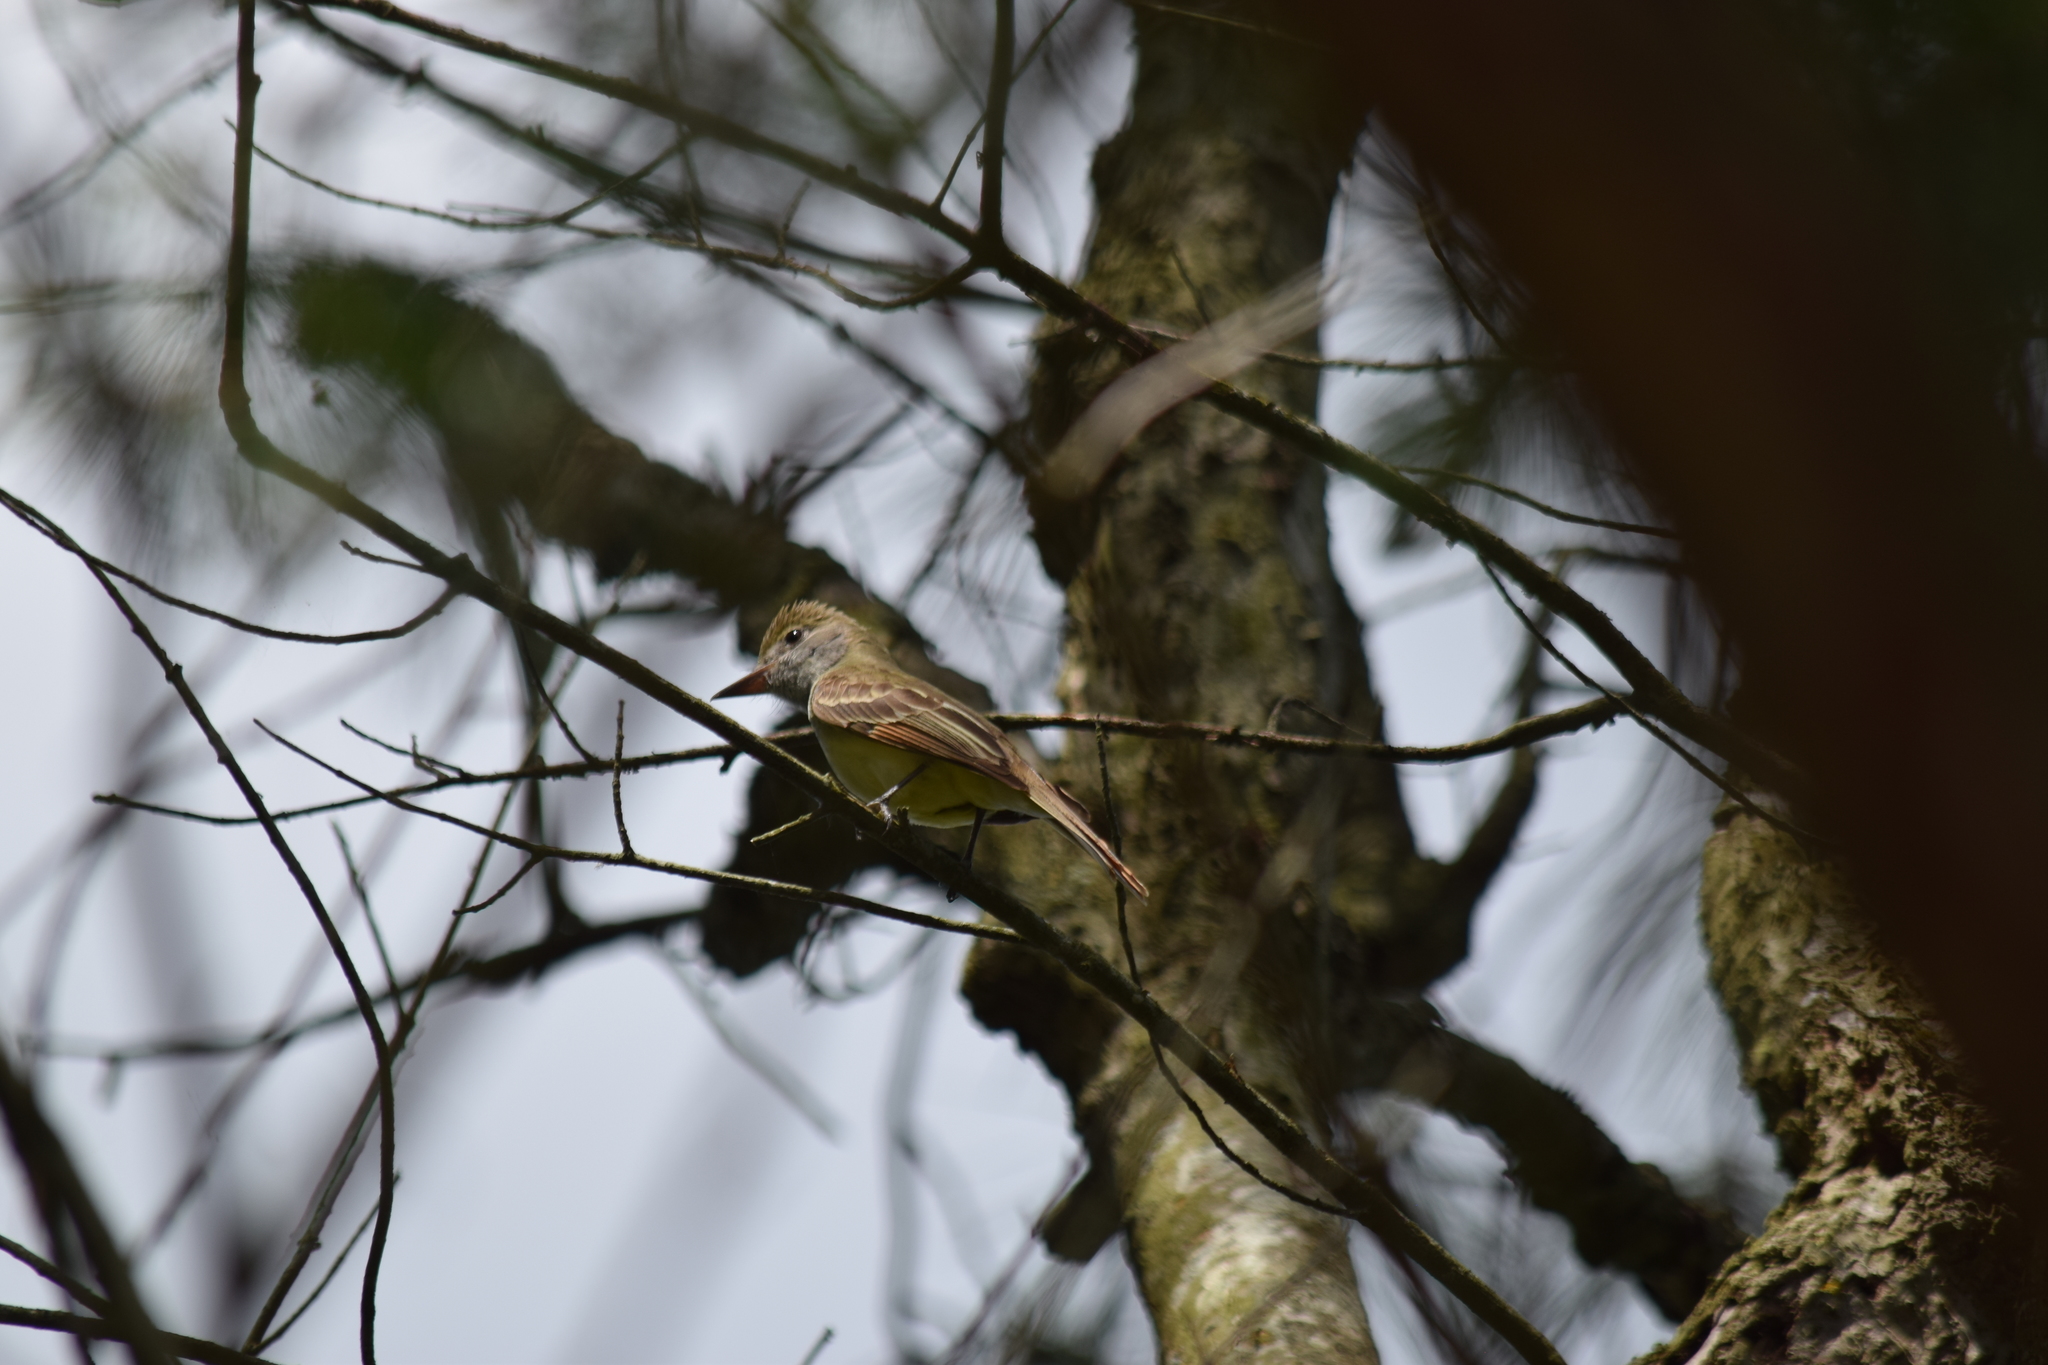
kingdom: Animalia
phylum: Chordata
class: Aves
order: Passeriformes
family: Tyrannidae
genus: Myiarchus
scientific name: Myiarchus crinitus
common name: Great crested flycatcher
